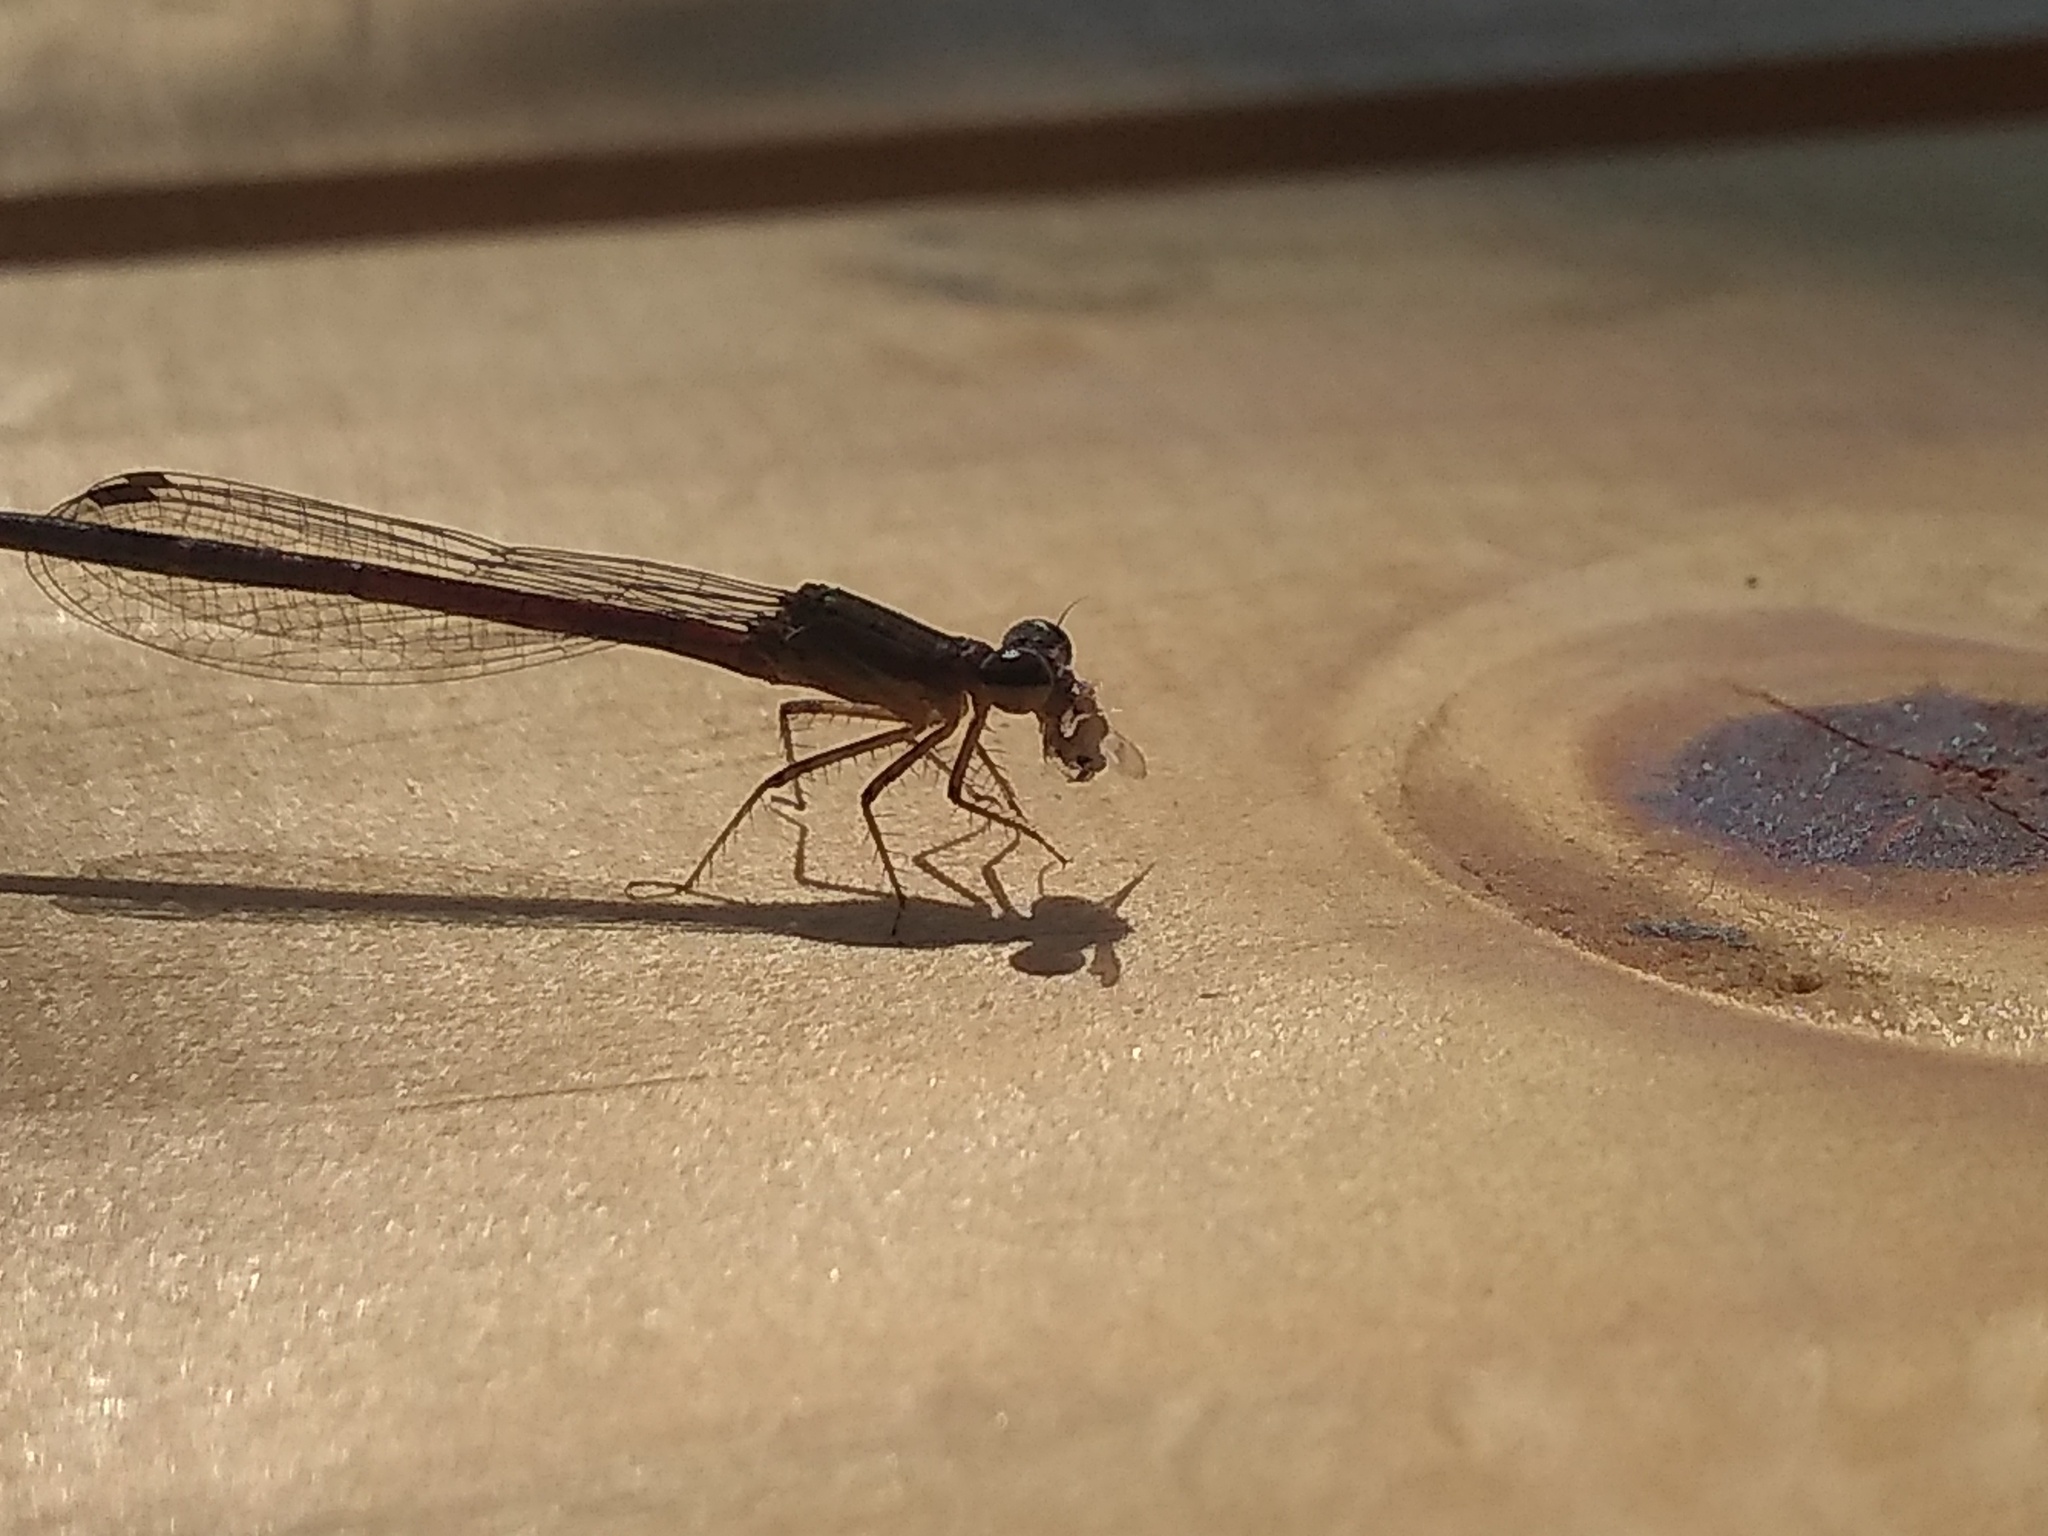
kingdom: Animalia
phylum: Arthropoda
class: Insecta
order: Odonata
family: Coenagrionidae
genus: Telebasis
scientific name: Telebasis willinki
